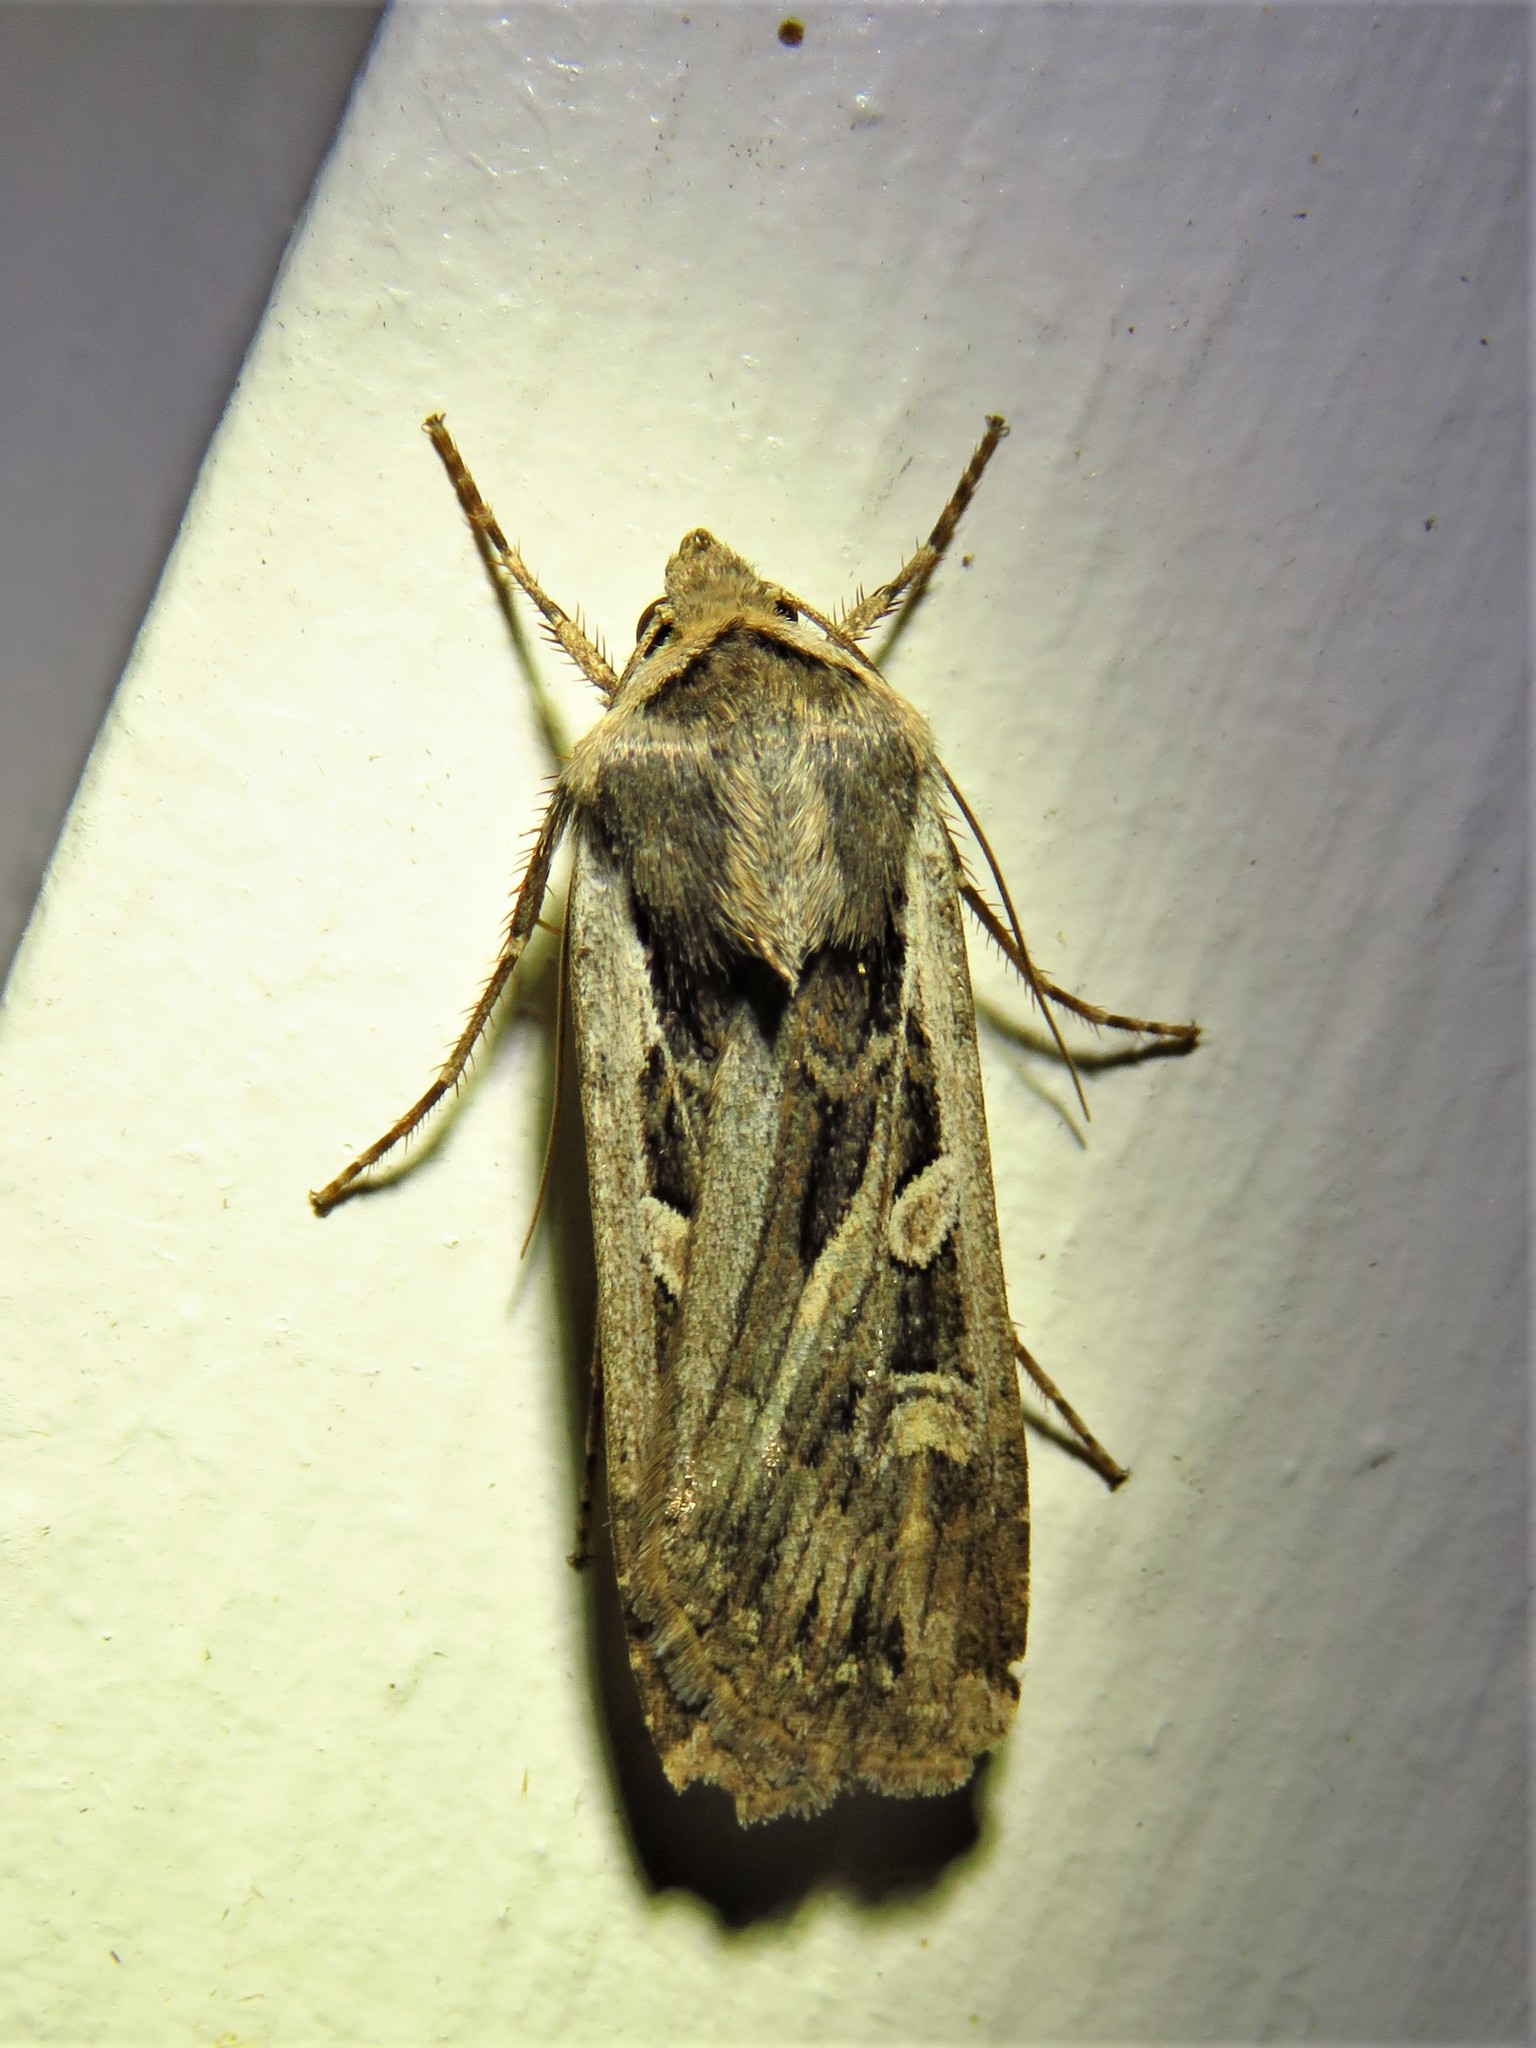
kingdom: Animalia
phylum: Arthropoda
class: Insecta
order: Lepidoptera
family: Noctuidae
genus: Euxoa
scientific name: Euxoa auxiliaris
